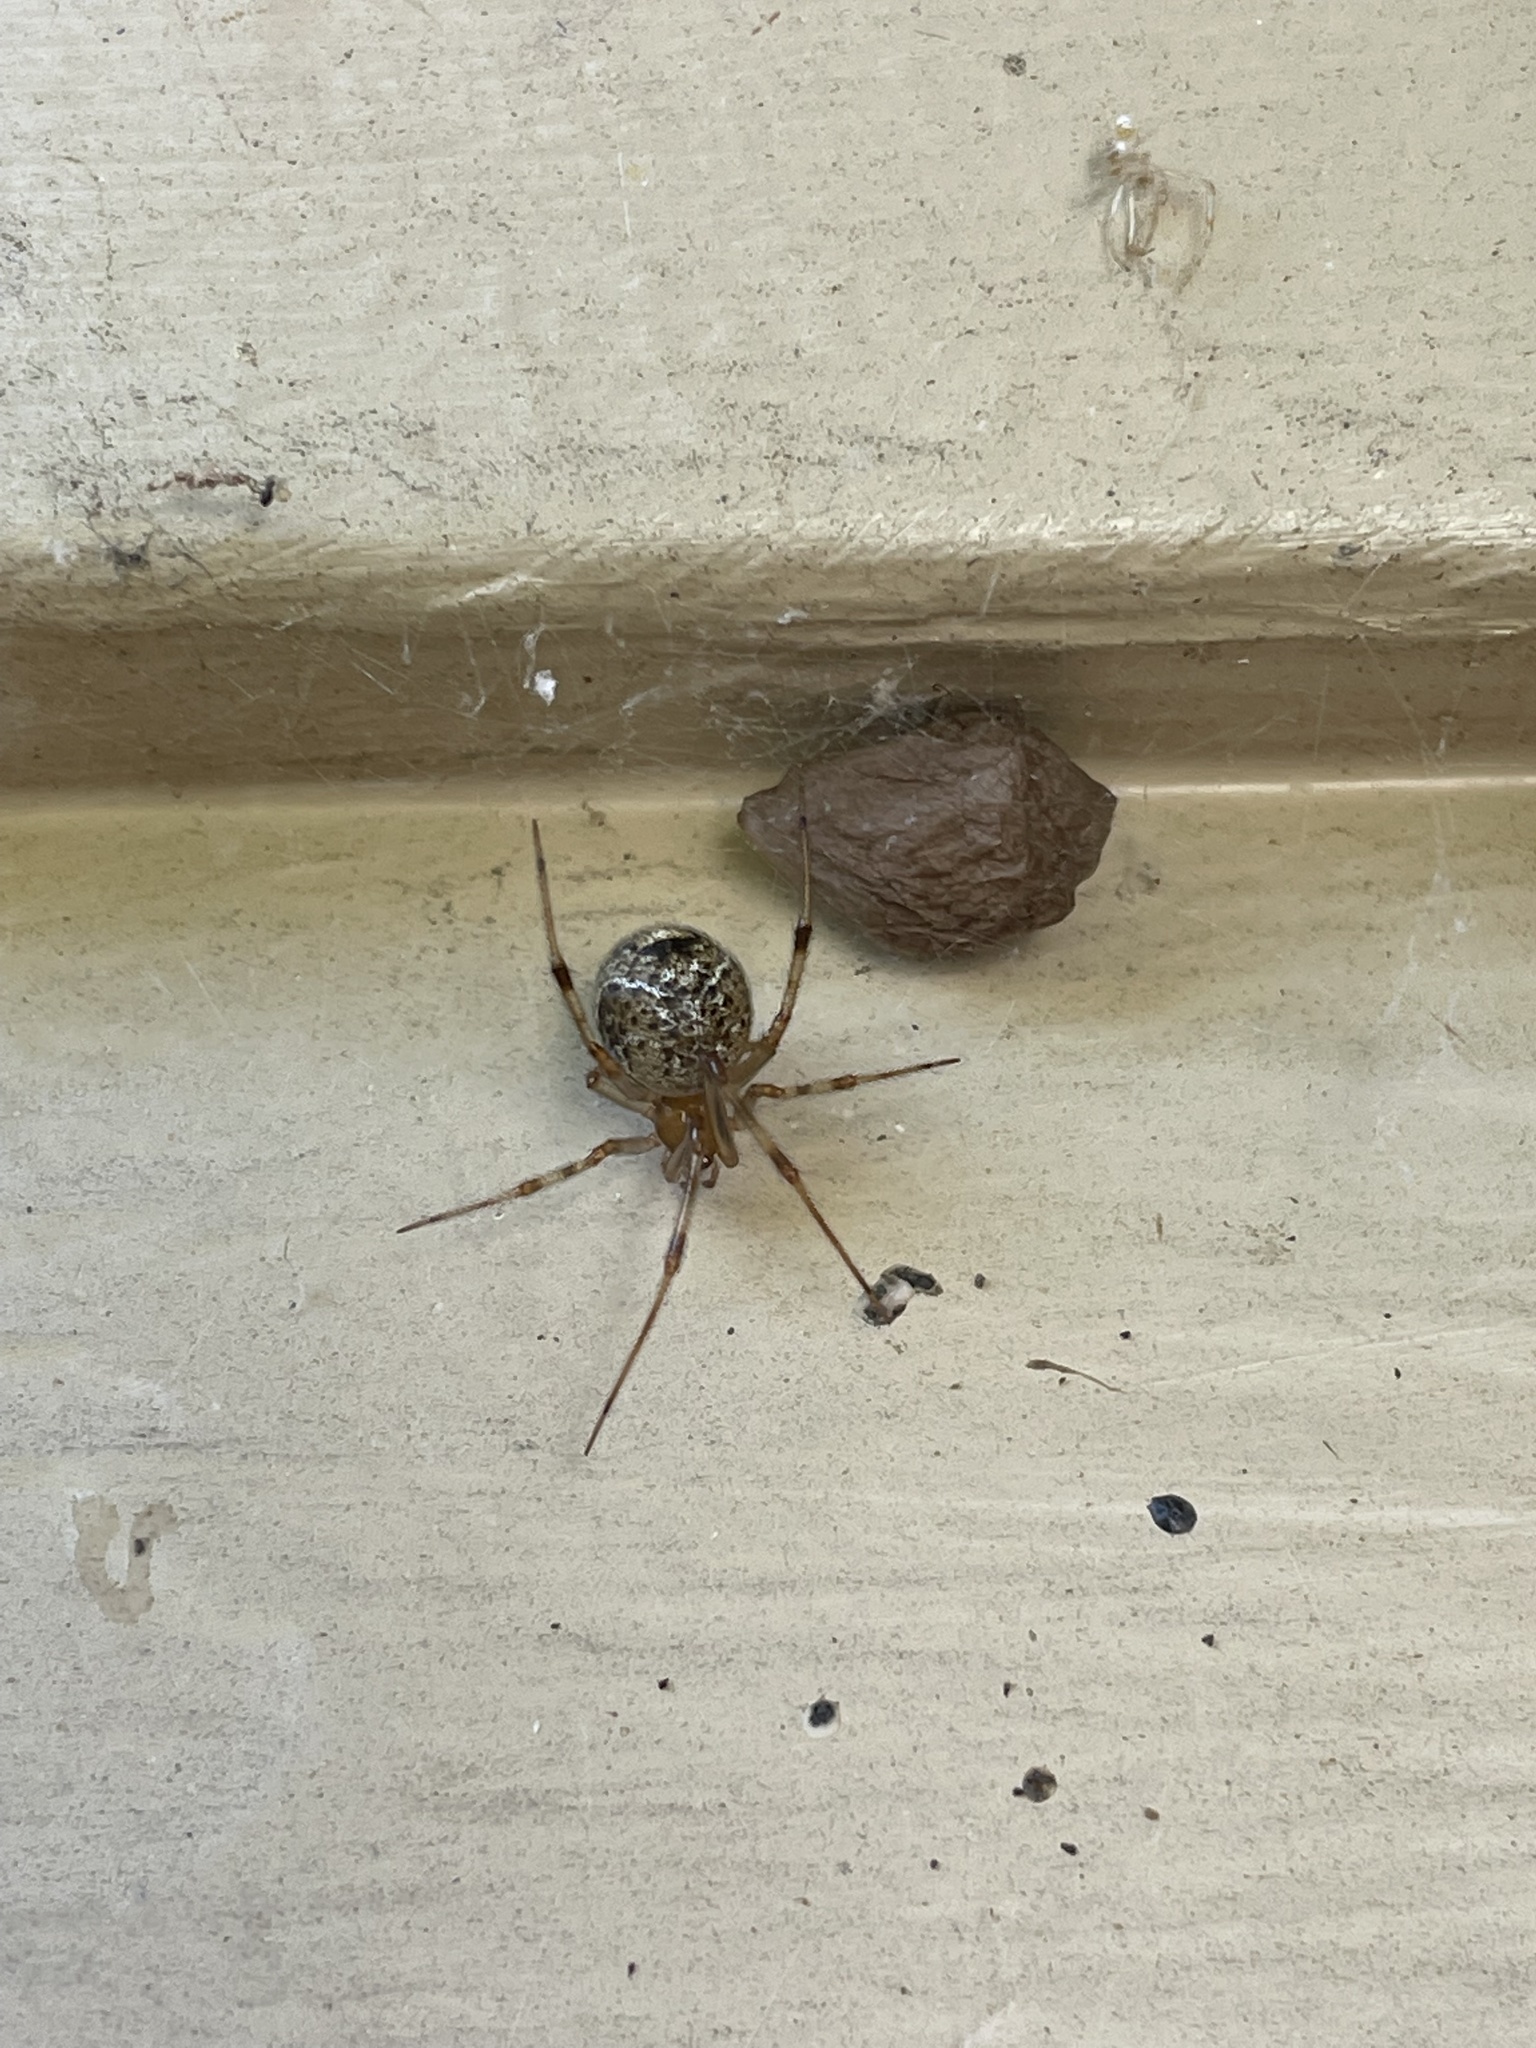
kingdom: Animalia
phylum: Arthropoda
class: Arachnida
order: Araneae
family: Theridiidae
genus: Parasteatoda
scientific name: Parasteatoda tepidariorum
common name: Common house spider
